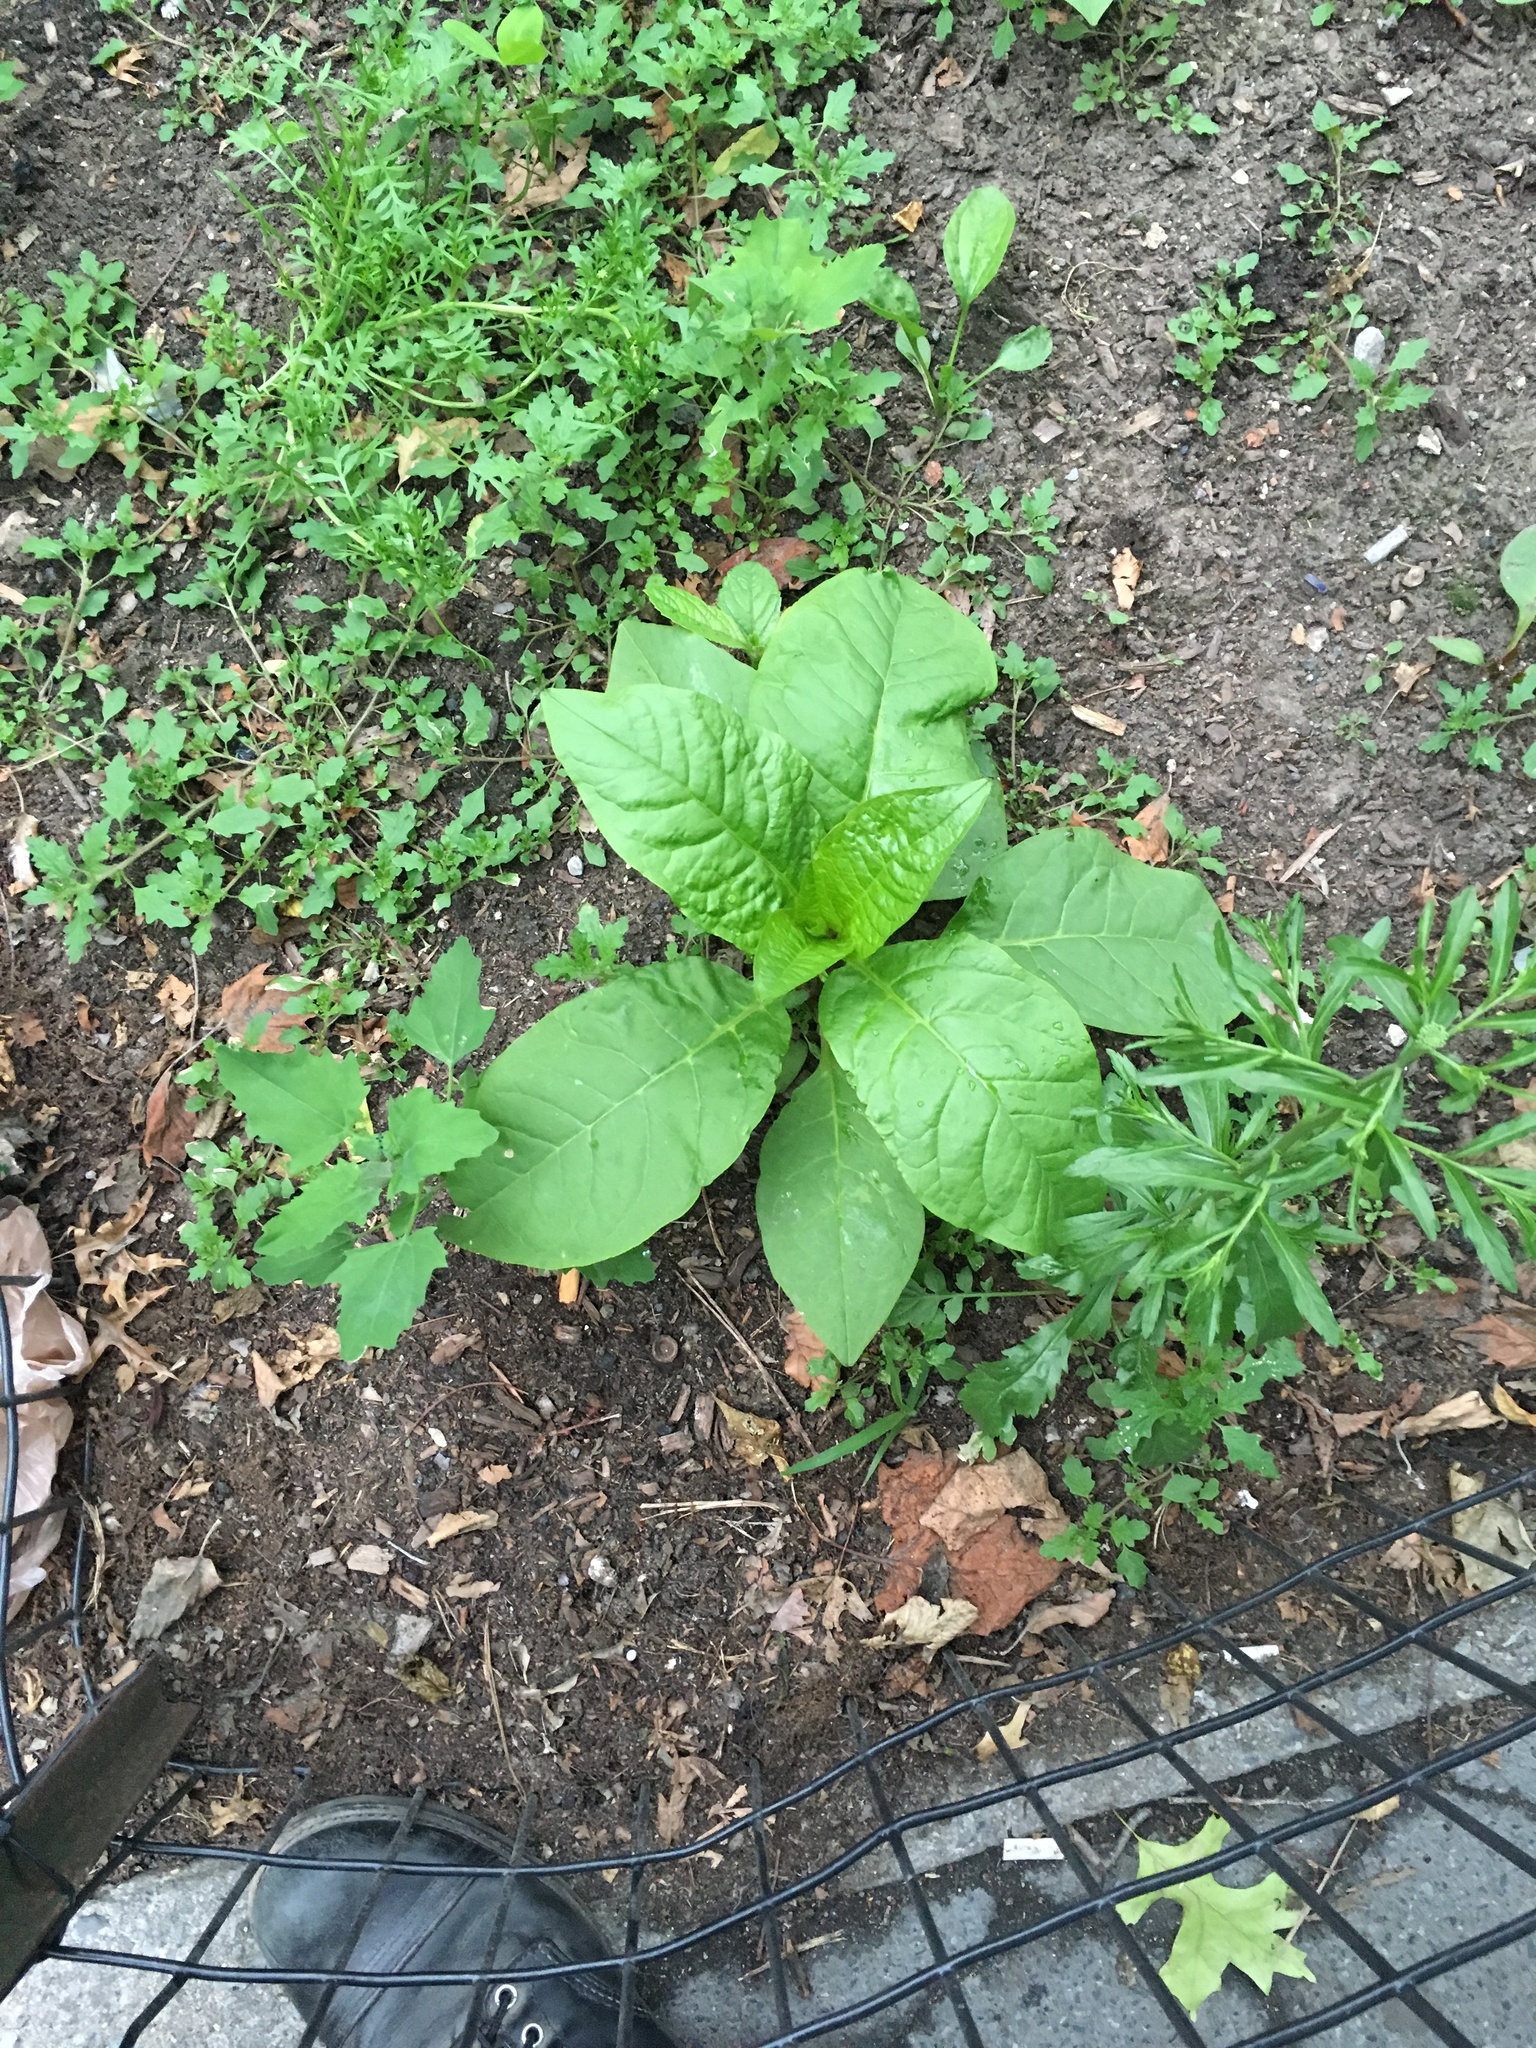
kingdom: Plantae
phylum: Tracheophyta
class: Magnoliopsida
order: Caryophyllales
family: Phytolaccaceae
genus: Phytolacca
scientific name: Phytolacca americana
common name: American pokeweed
